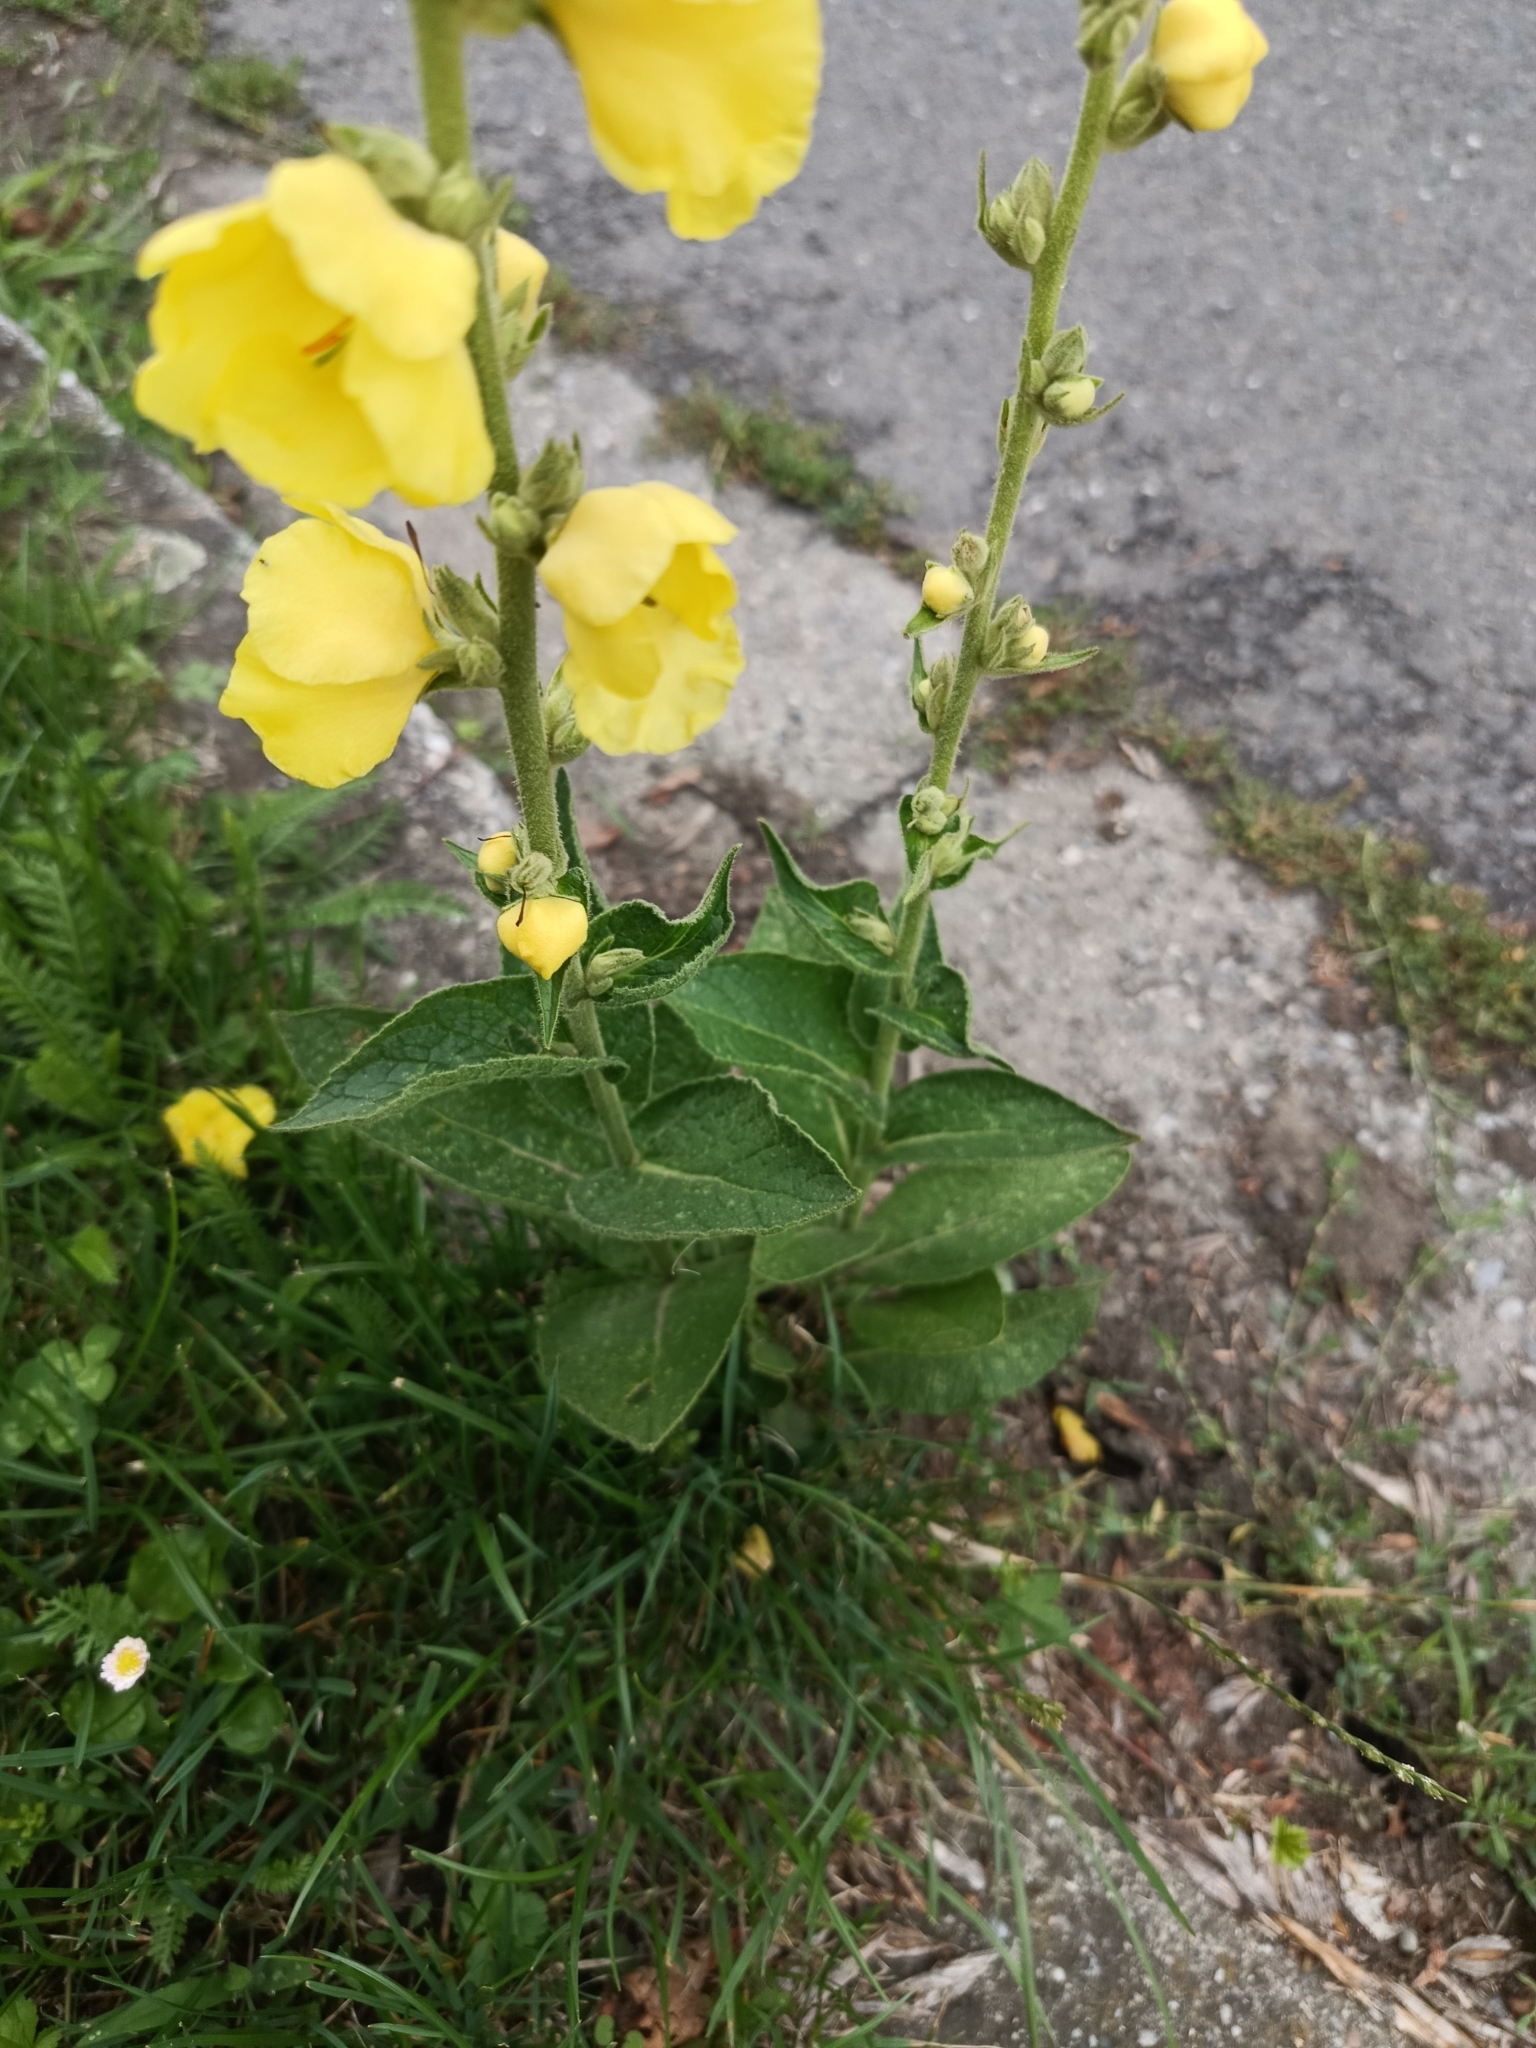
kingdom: Plantae
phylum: Tracheophyta
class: Magnoliopsida
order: Lamiales
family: Scrophulariaceae
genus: Verbascum
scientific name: Verbascum phlomoides
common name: Orange mullein
